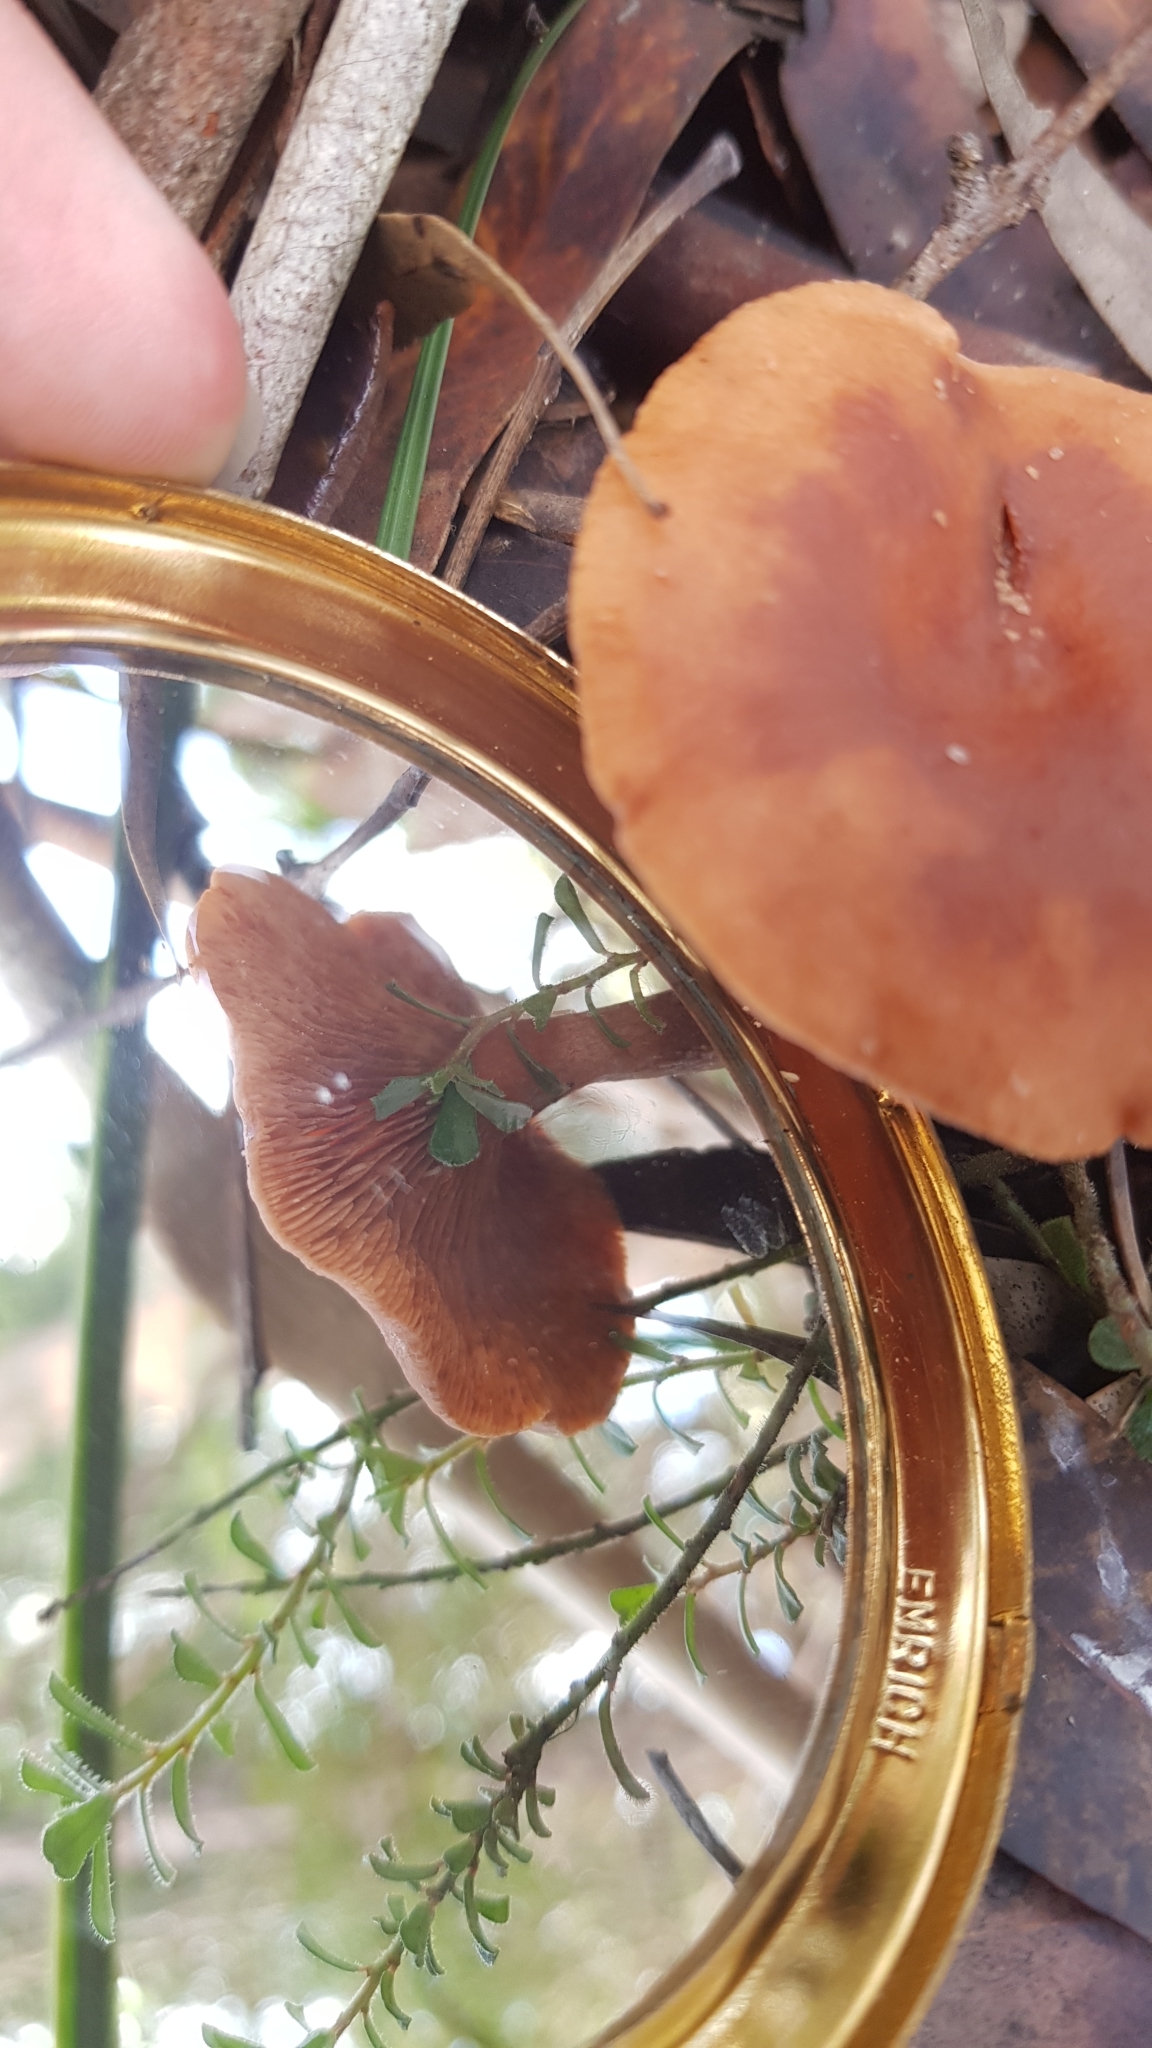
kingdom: Fungi
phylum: Basidiomycota
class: Agaricomycetes
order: Russulales
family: Russulaceae
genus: Lactarius
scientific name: Lactarius eucalypti
